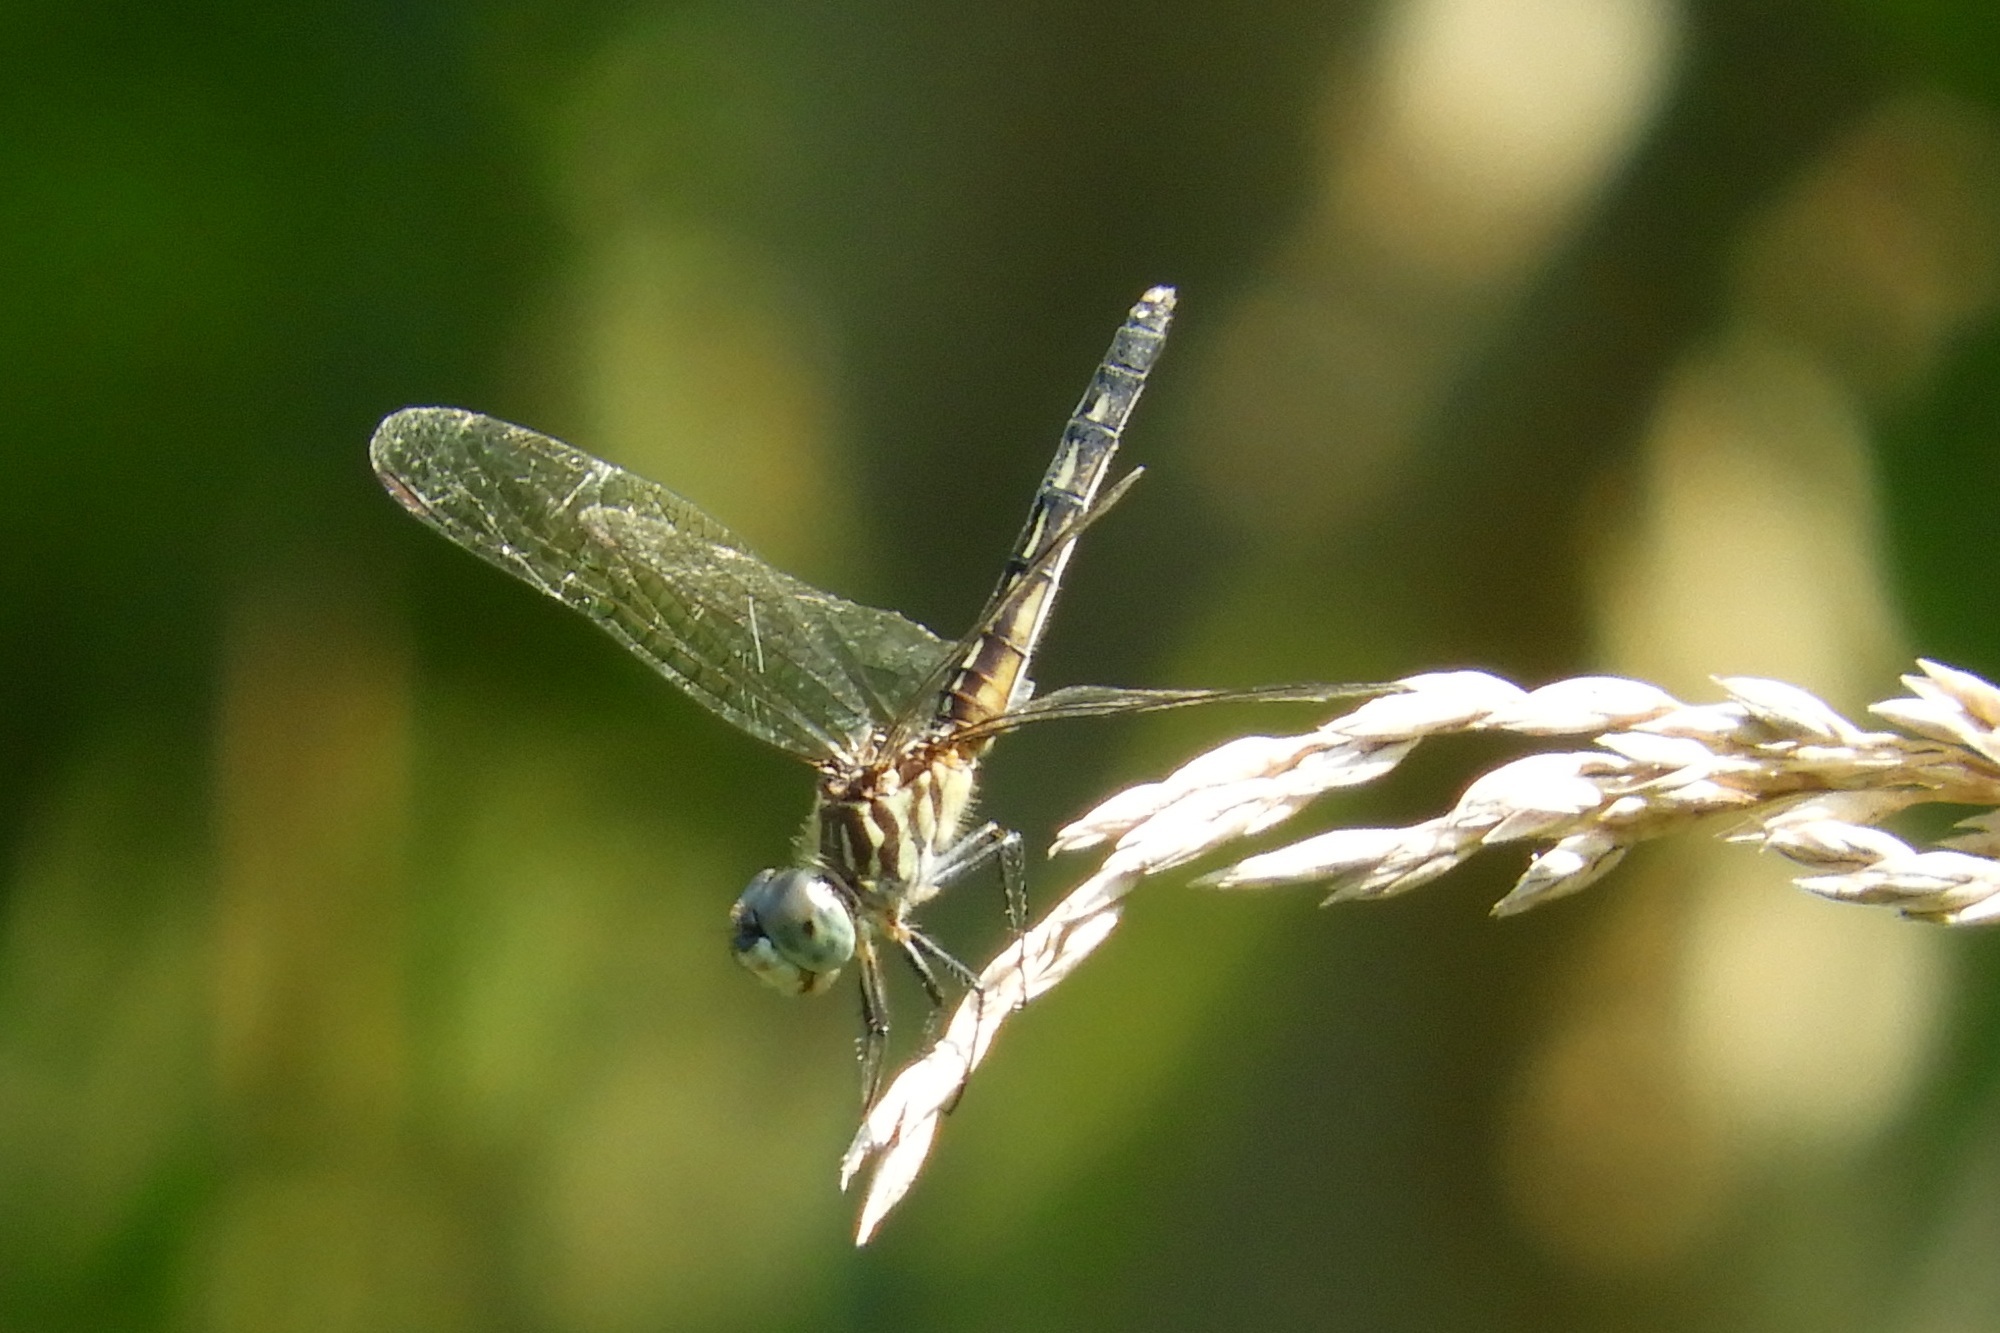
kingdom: Animalia
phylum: Arthropoda
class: Insecta
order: Odonata
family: Libellulidae
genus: Pachydiplax
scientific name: Pachydiplax longipennis
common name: Blue dasher
